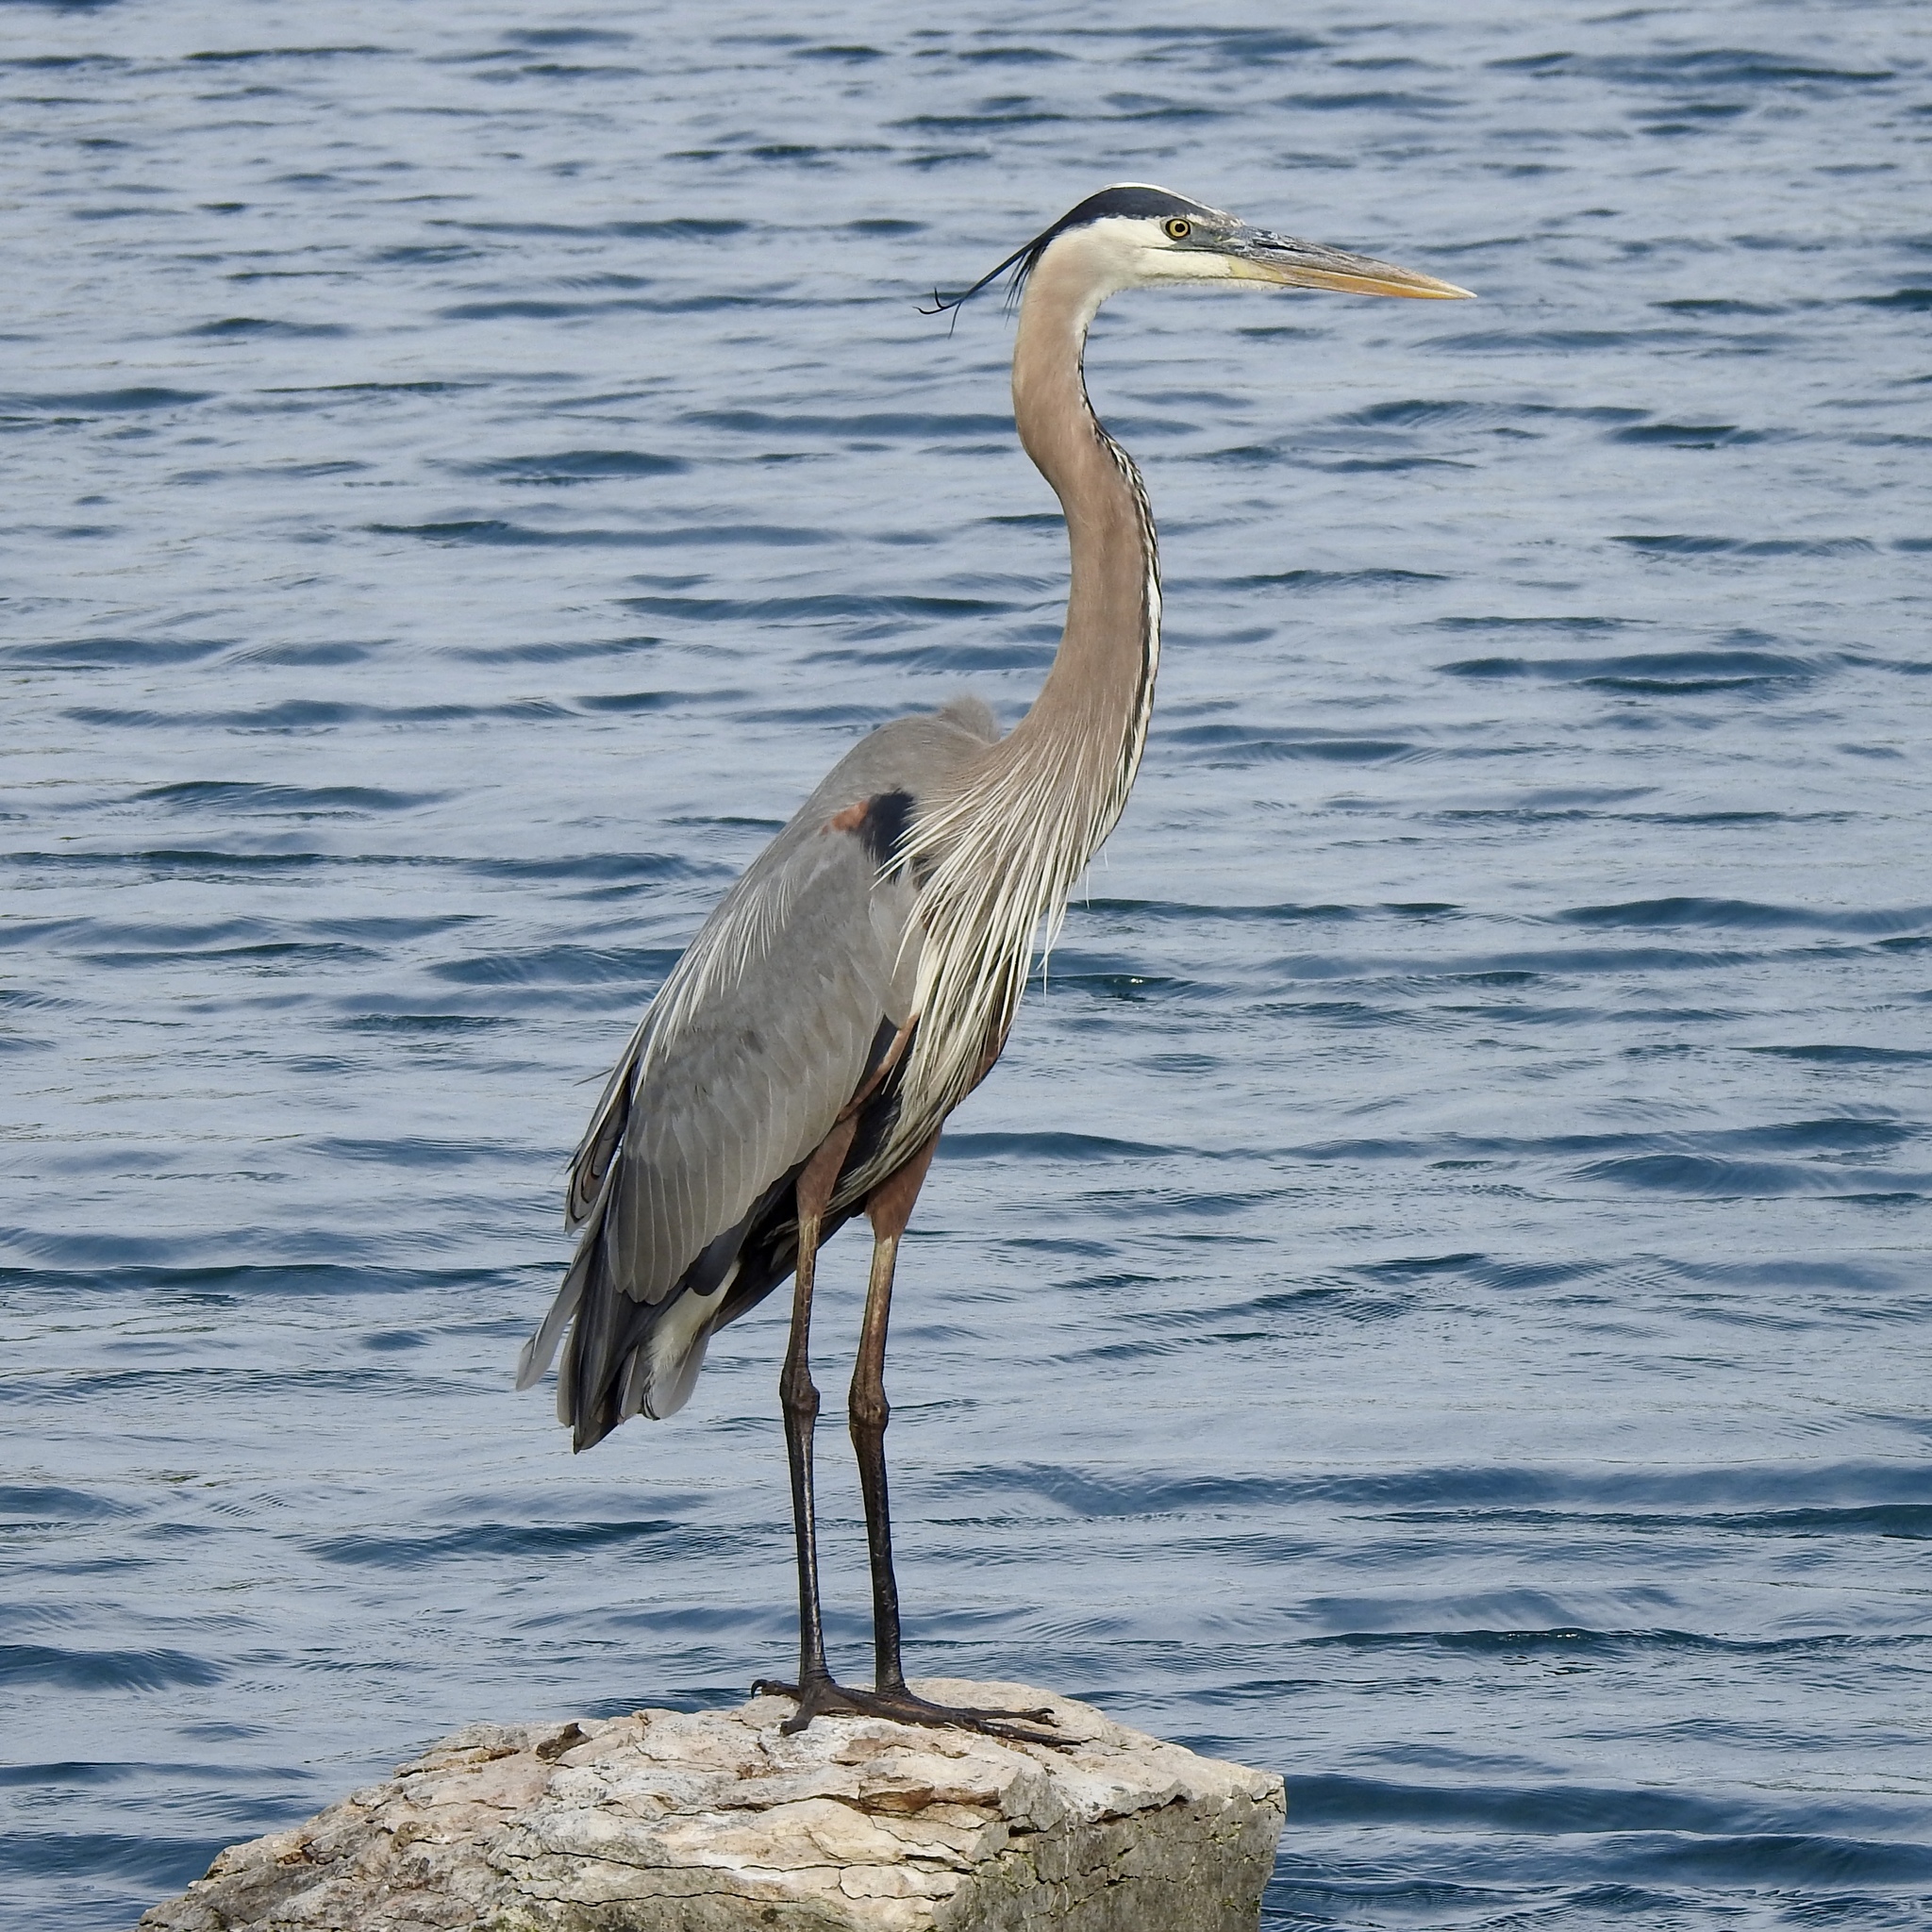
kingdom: Animalia
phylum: Chordata
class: Aves
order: Pelecaniformes
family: Ardeidae
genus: Ardea
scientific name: Ardea herodias
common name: Great blue heron
